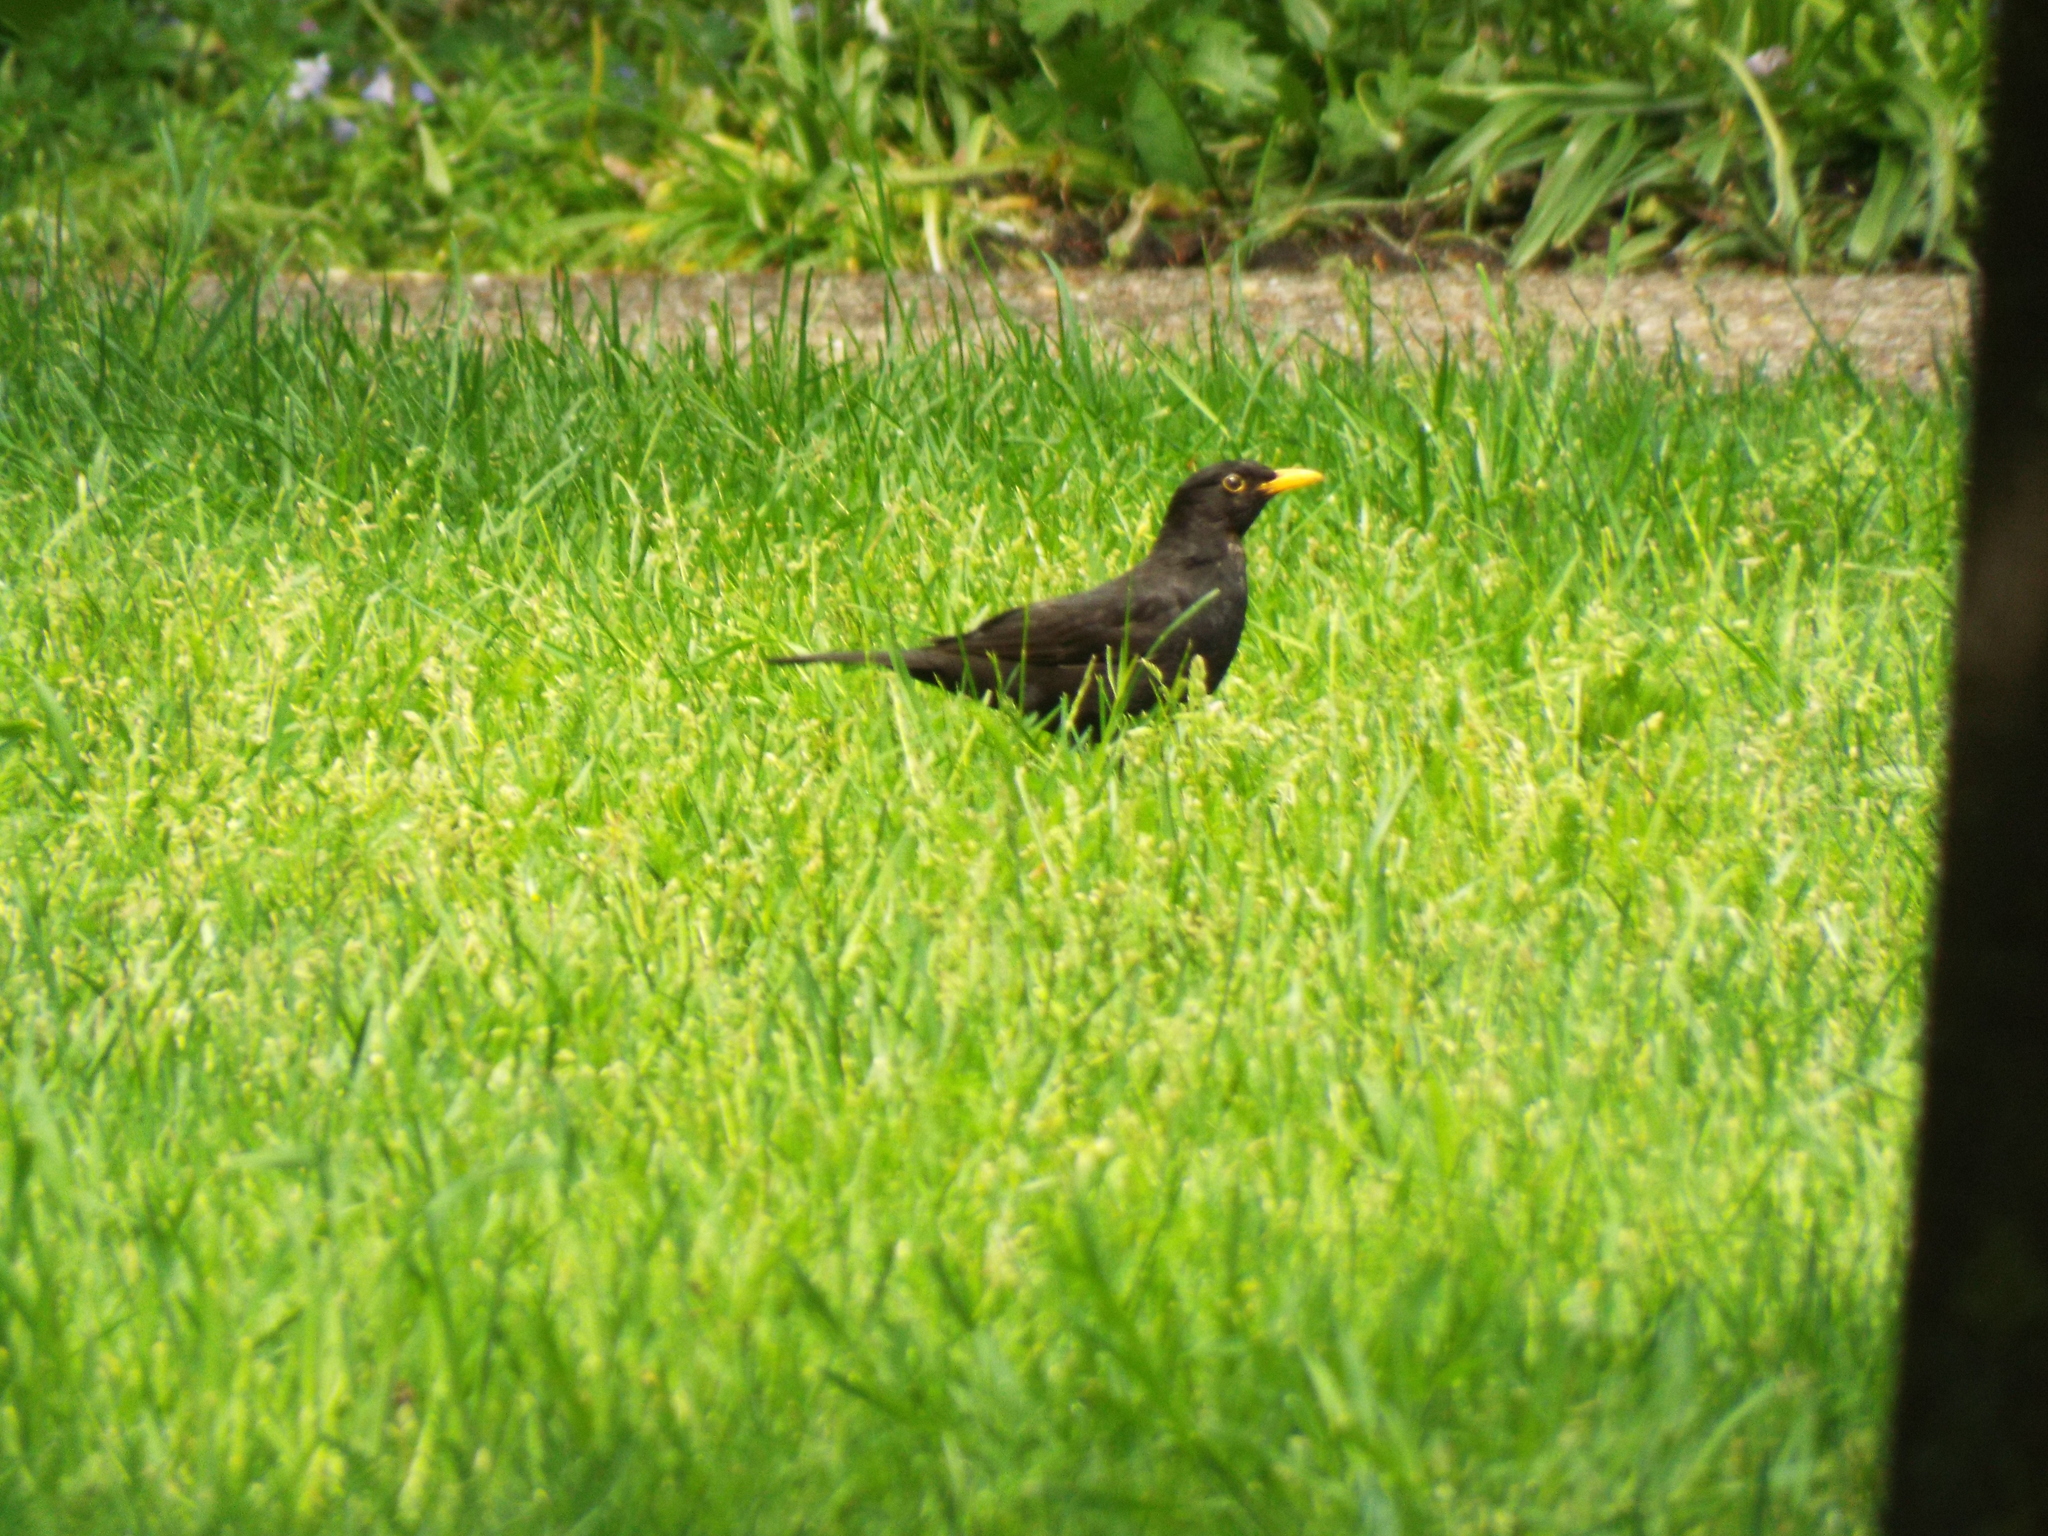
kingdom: Animalia
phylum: Chordata
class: Aves
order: Passeriformes
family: Turdidae
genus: Turdus
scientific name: Turdus merula
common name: Common blackbird
